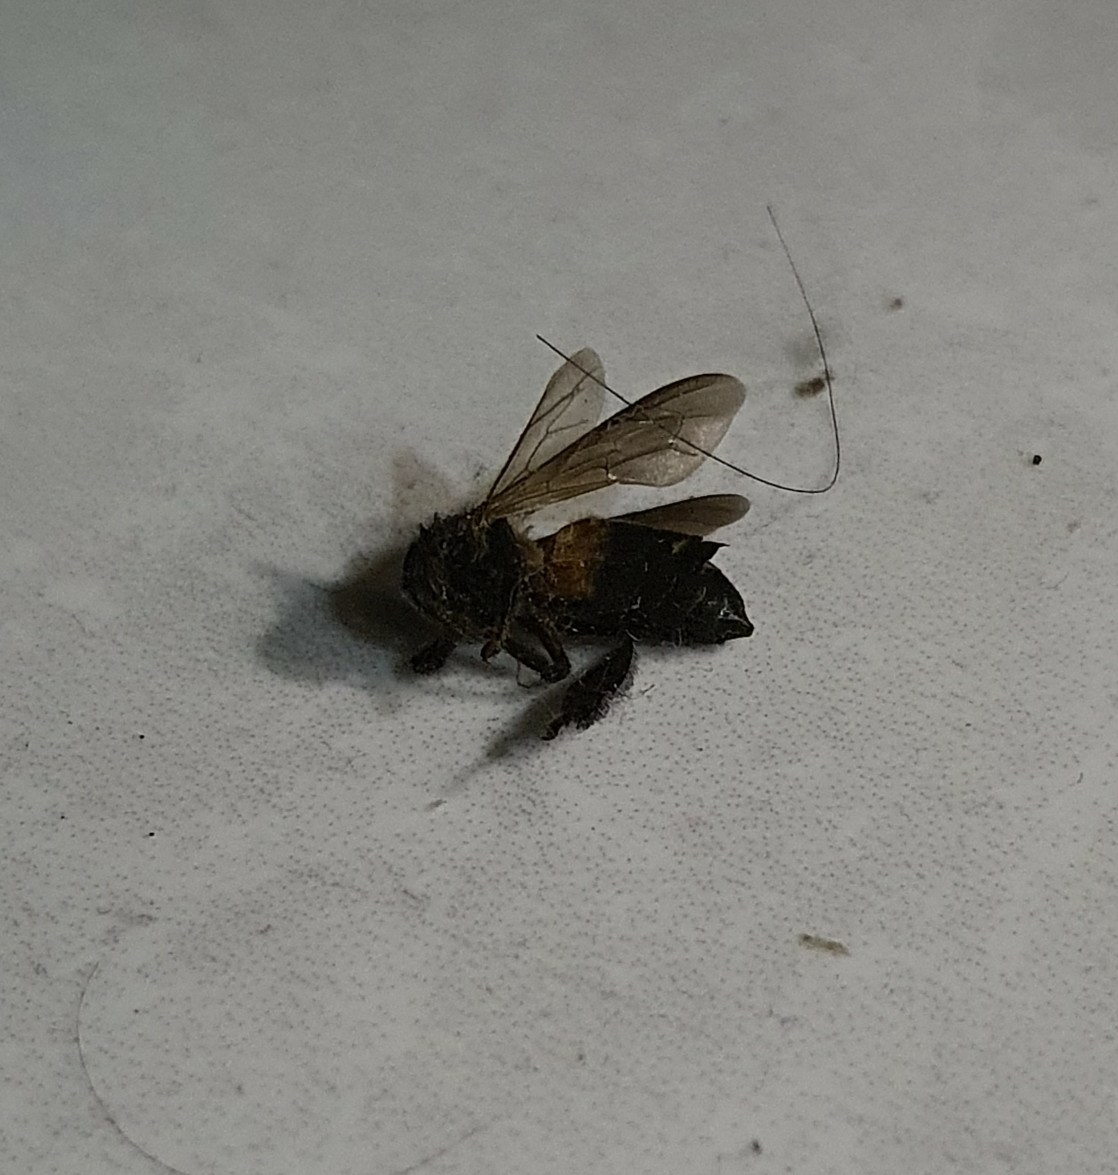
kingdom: Animalia
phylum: Arthropoda
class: Insecta
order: Hymenoptera
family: Apidae
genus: Apis
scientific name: Apis dorsata
